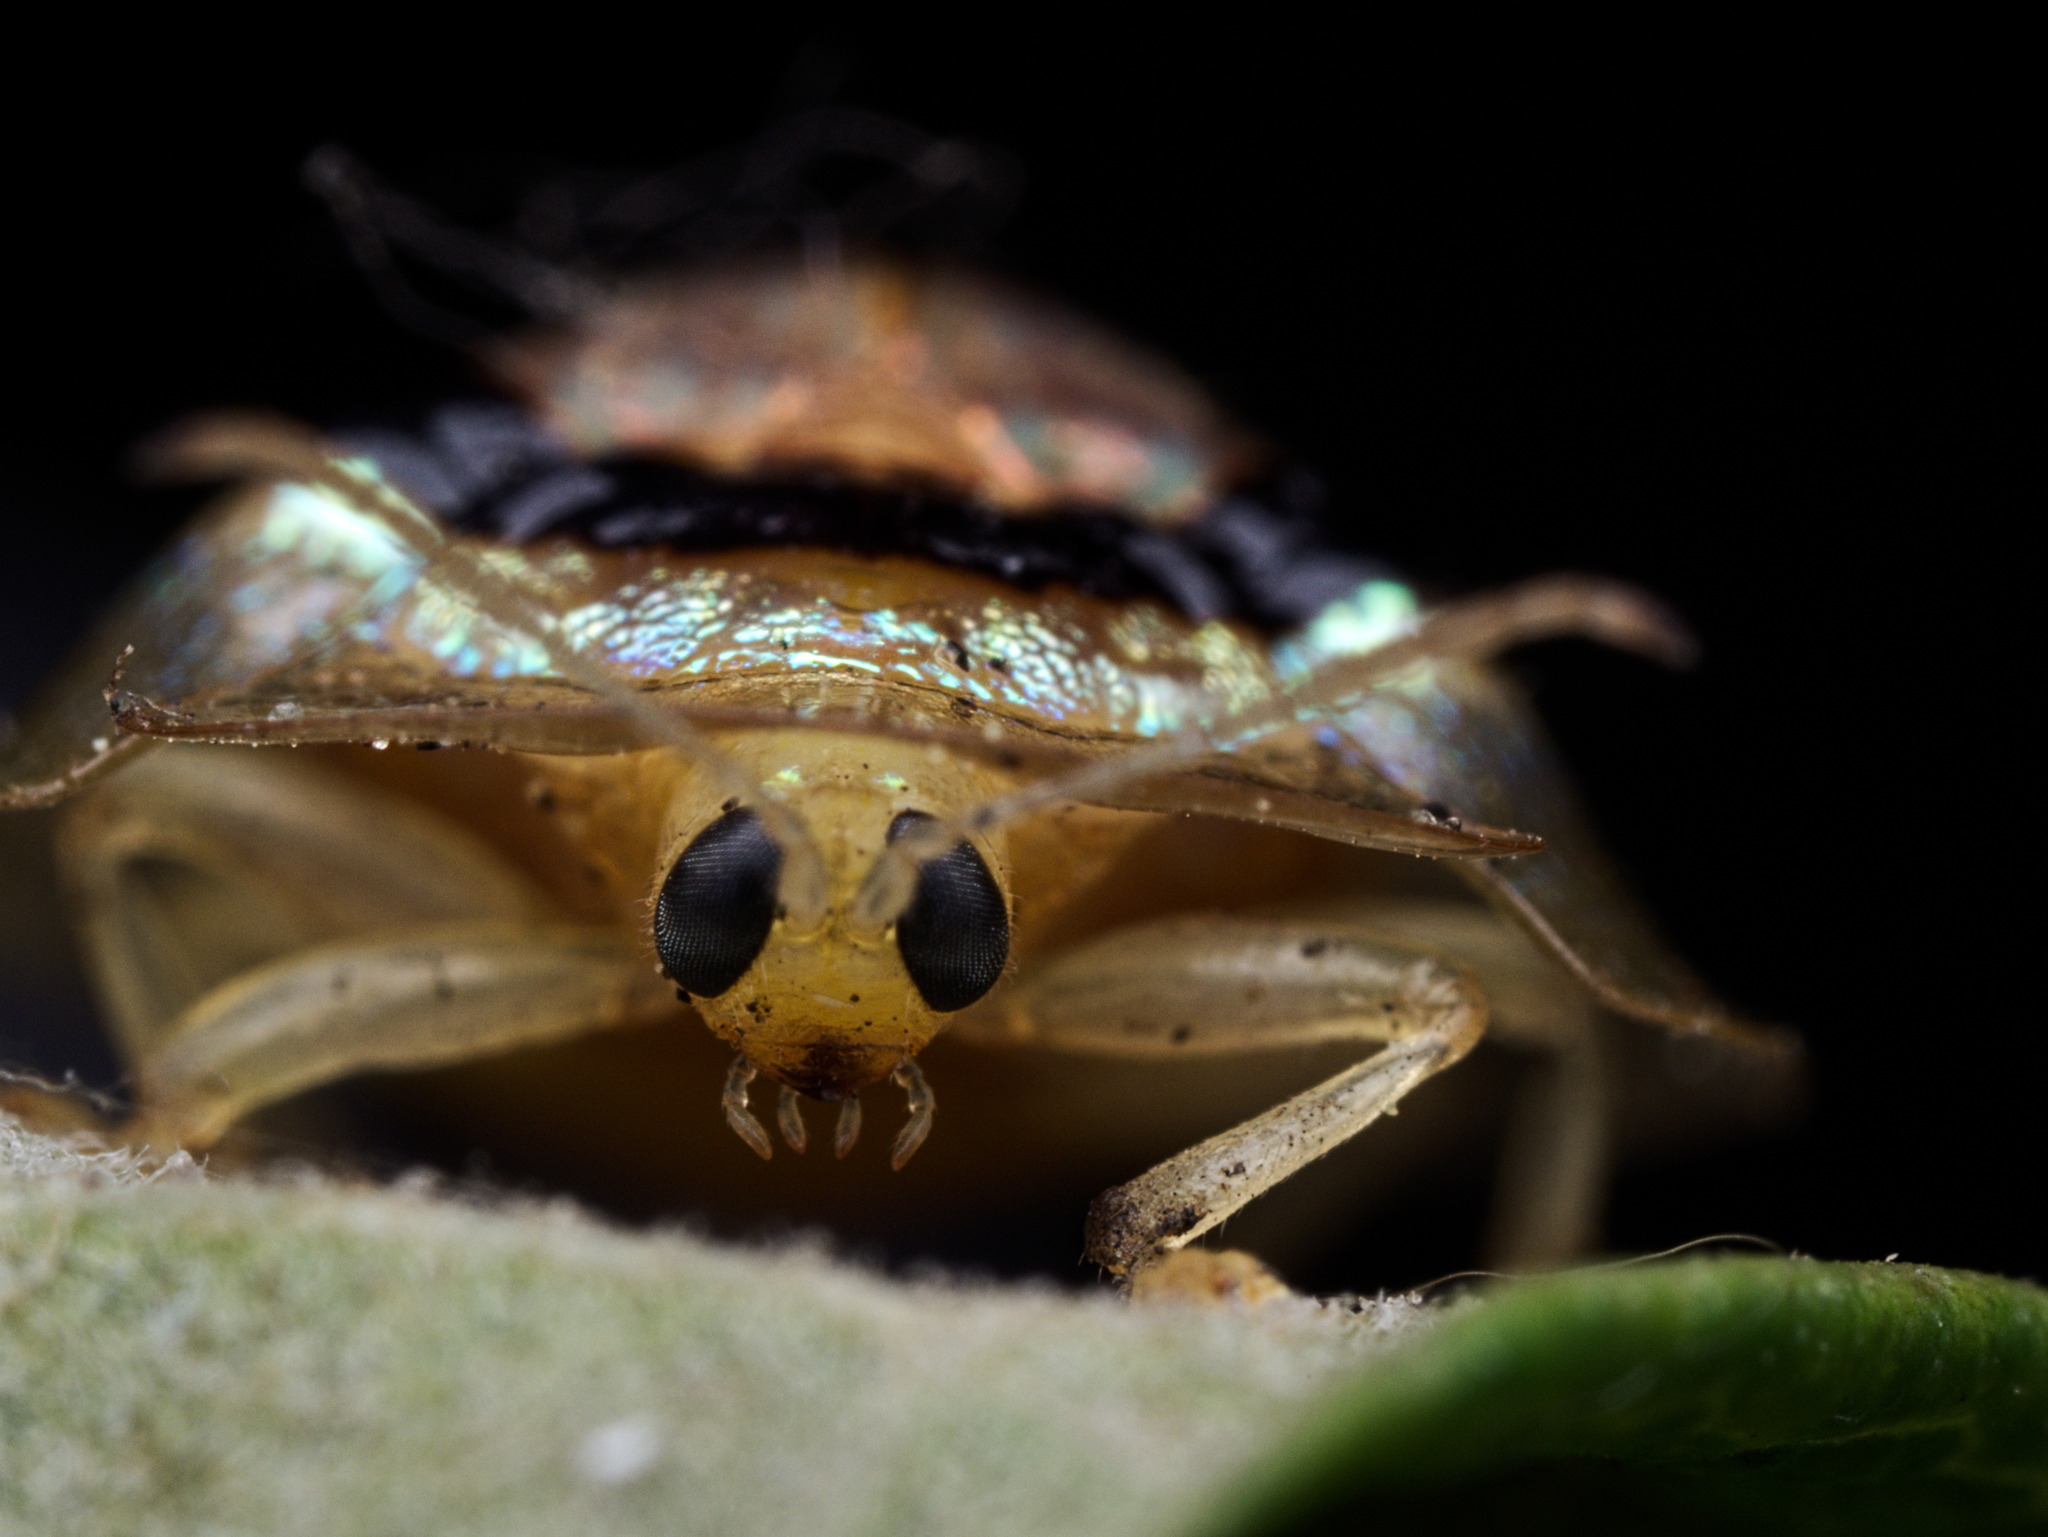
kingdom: Animalia
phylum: Arthropoda
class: Insecta
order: Coleoptera
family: Chrysomelidae
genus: Tapinaspis
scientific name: Tapinaspis wesmaeli
